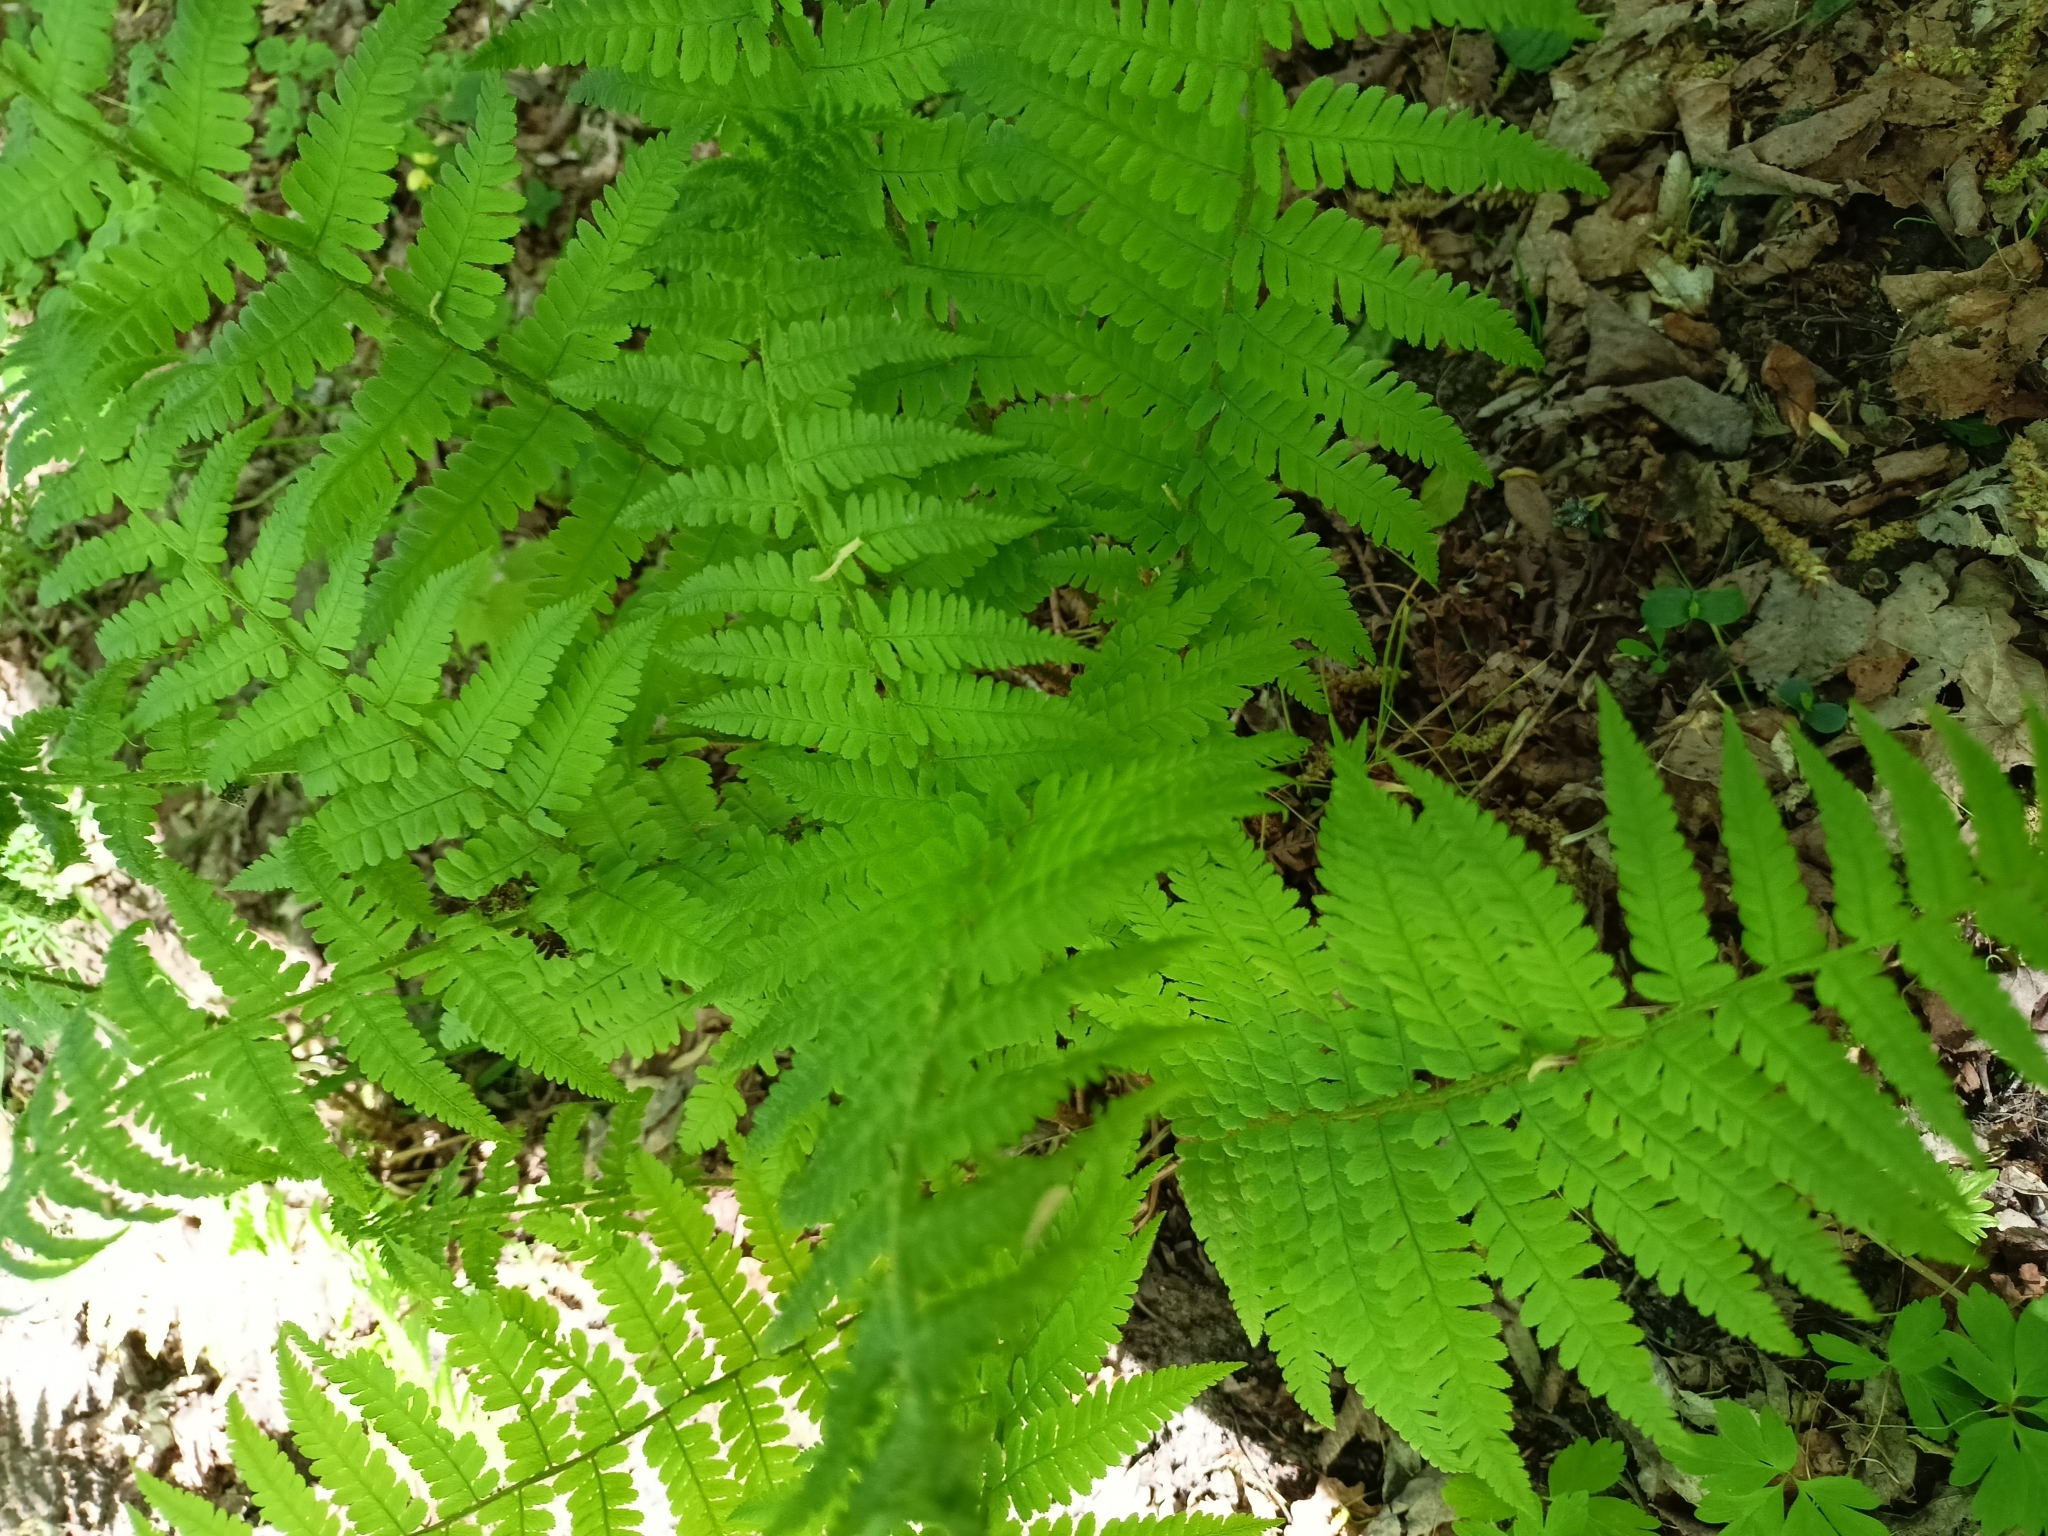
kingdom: Plantae
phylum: Tracheophyta
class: Polypodiopsida
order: Polypodiales
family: Dryopteridaceae
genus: Dryopteris
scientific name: Dryopteris filix-mas
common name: Male fern
